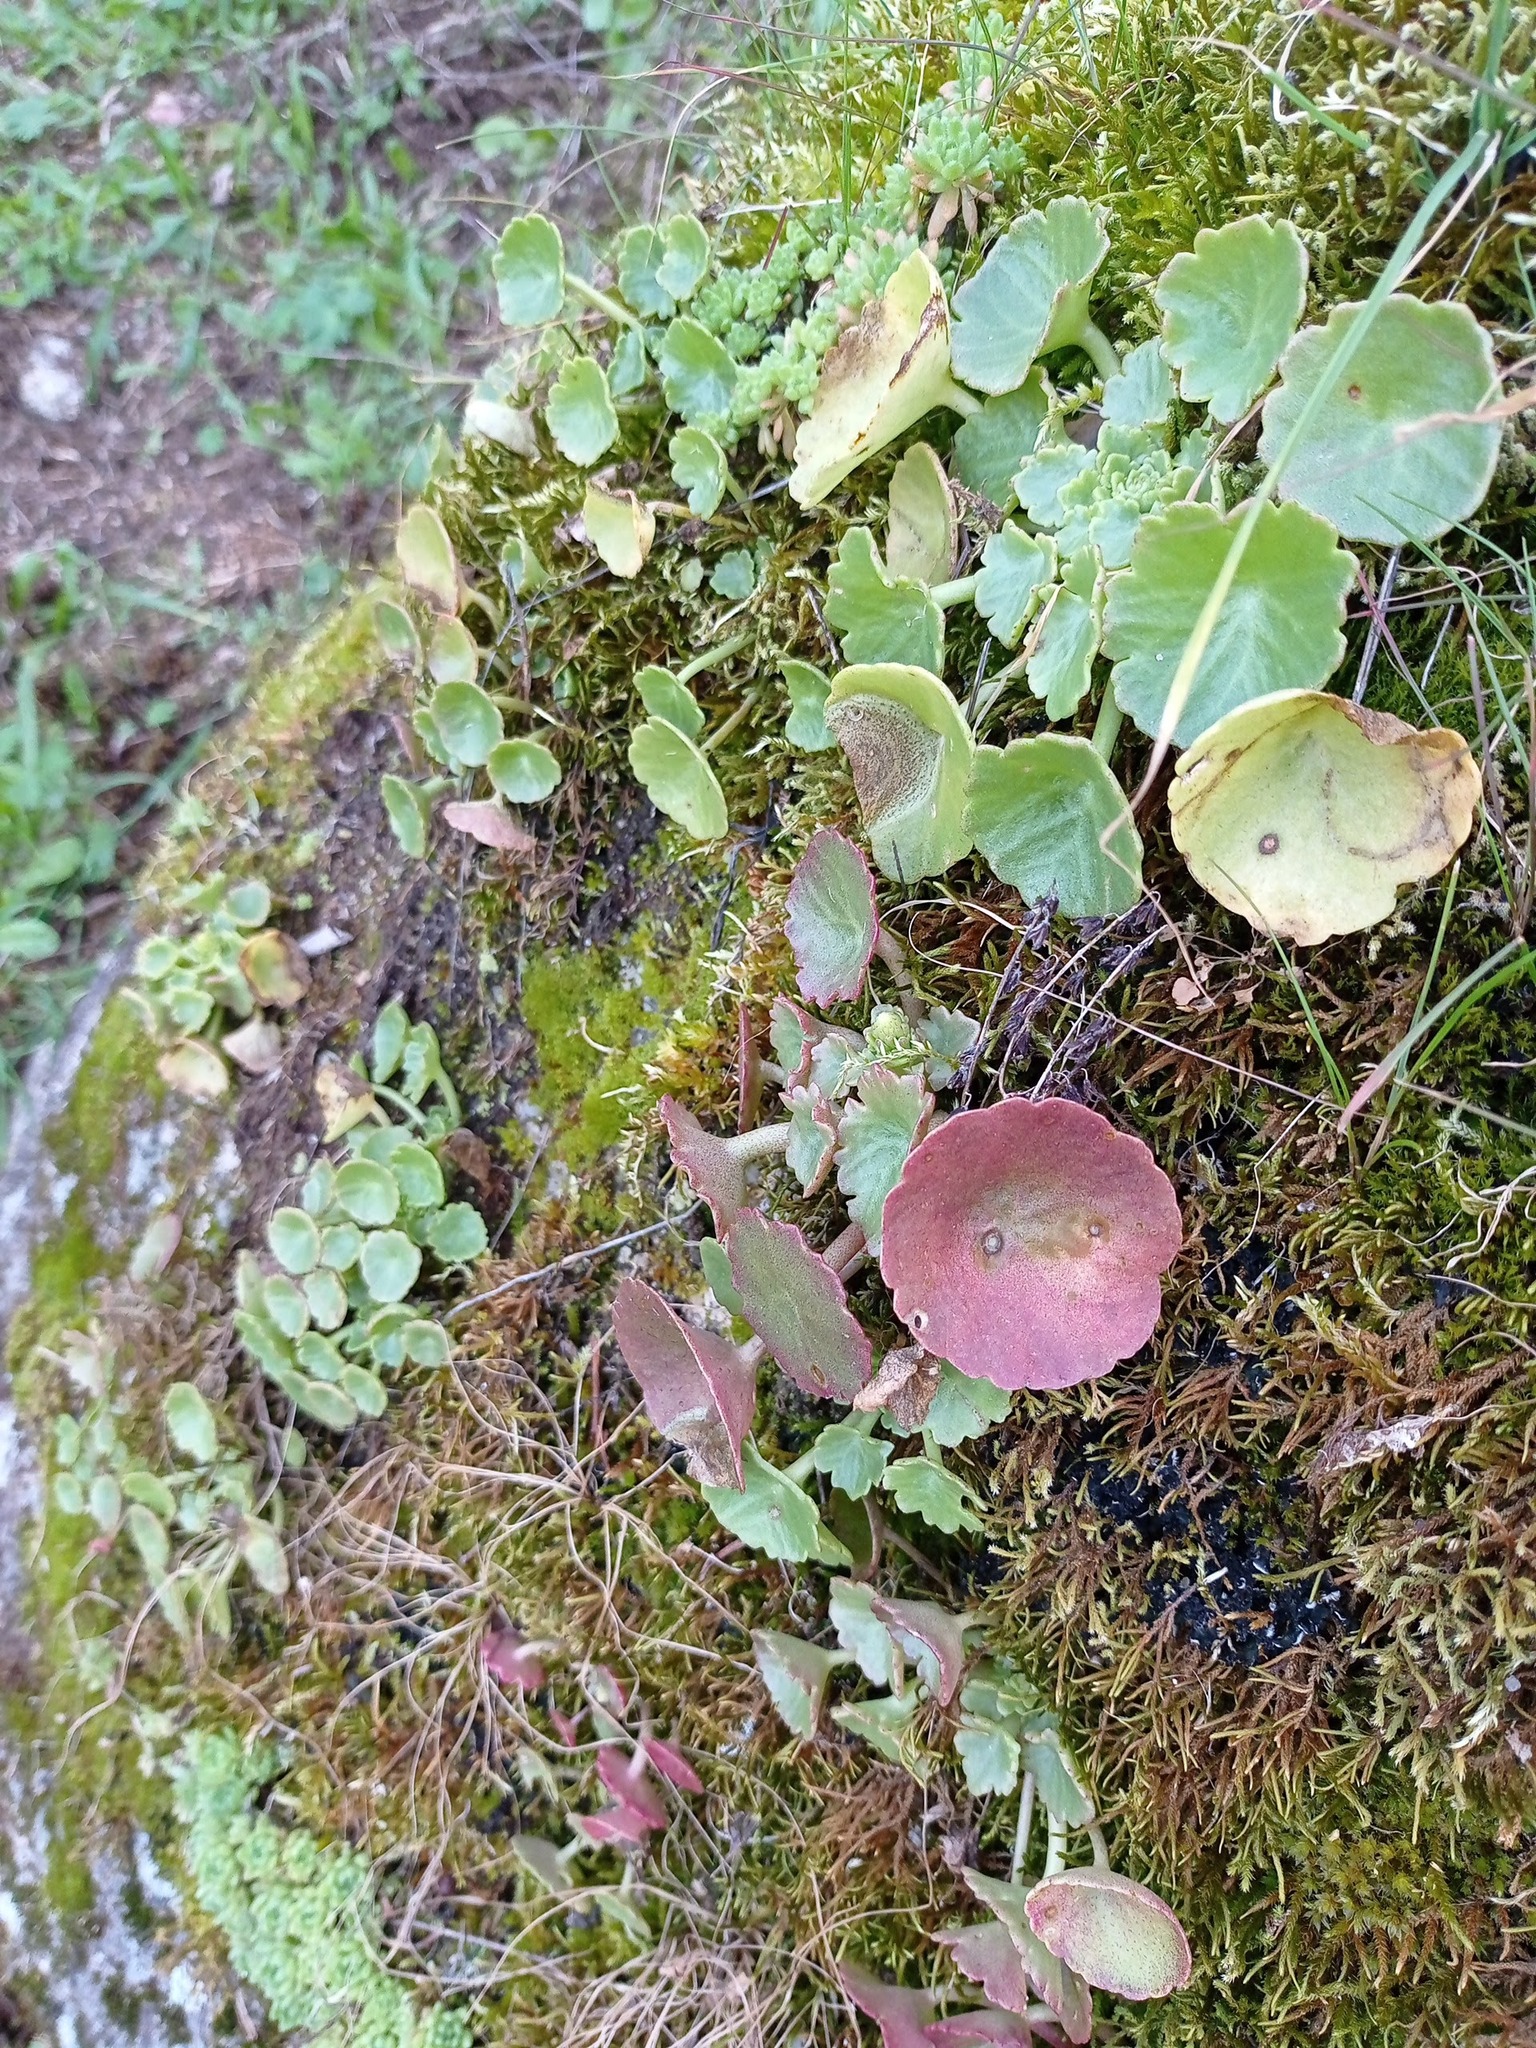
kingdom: Plantae
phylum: Tracheophyta
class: Magnoliopsida
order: Saxifragales
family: Crassulaceae
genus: Umbilicus
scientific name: Umbilicus rupestris
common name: Navelwort
